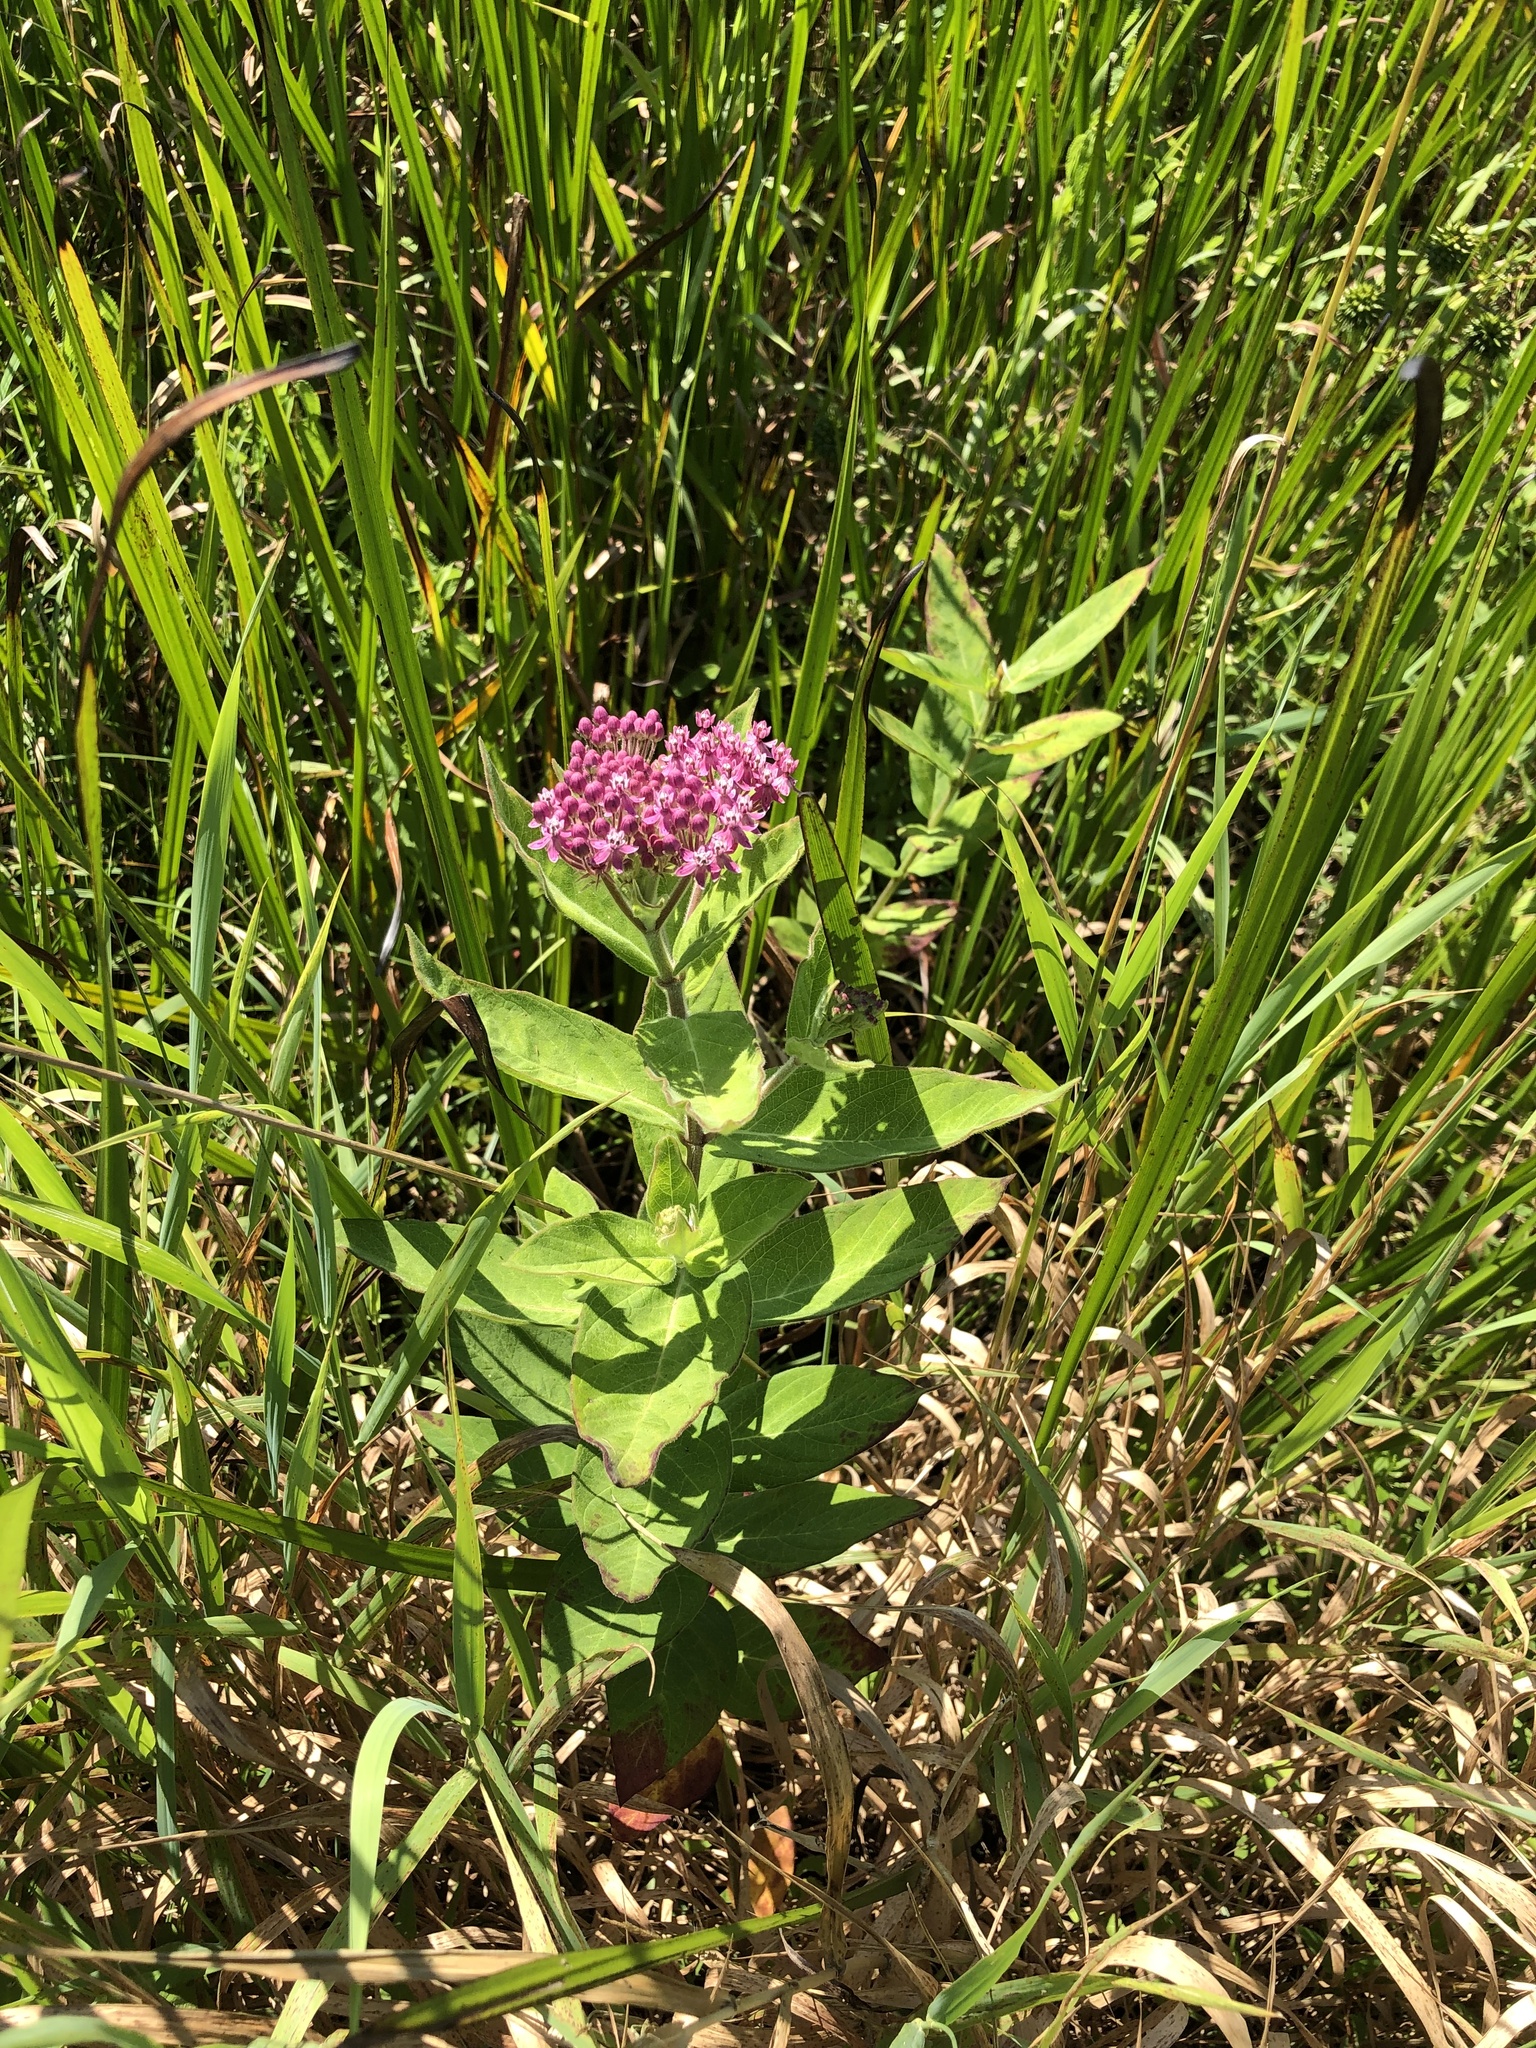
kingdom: Plantae
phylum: Tracheophyta
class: Magnoliopsida
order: Gentianales
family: Apocynaceae
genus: Asclepias
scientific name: Asclepias incarnata
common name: Swamp milkweed
